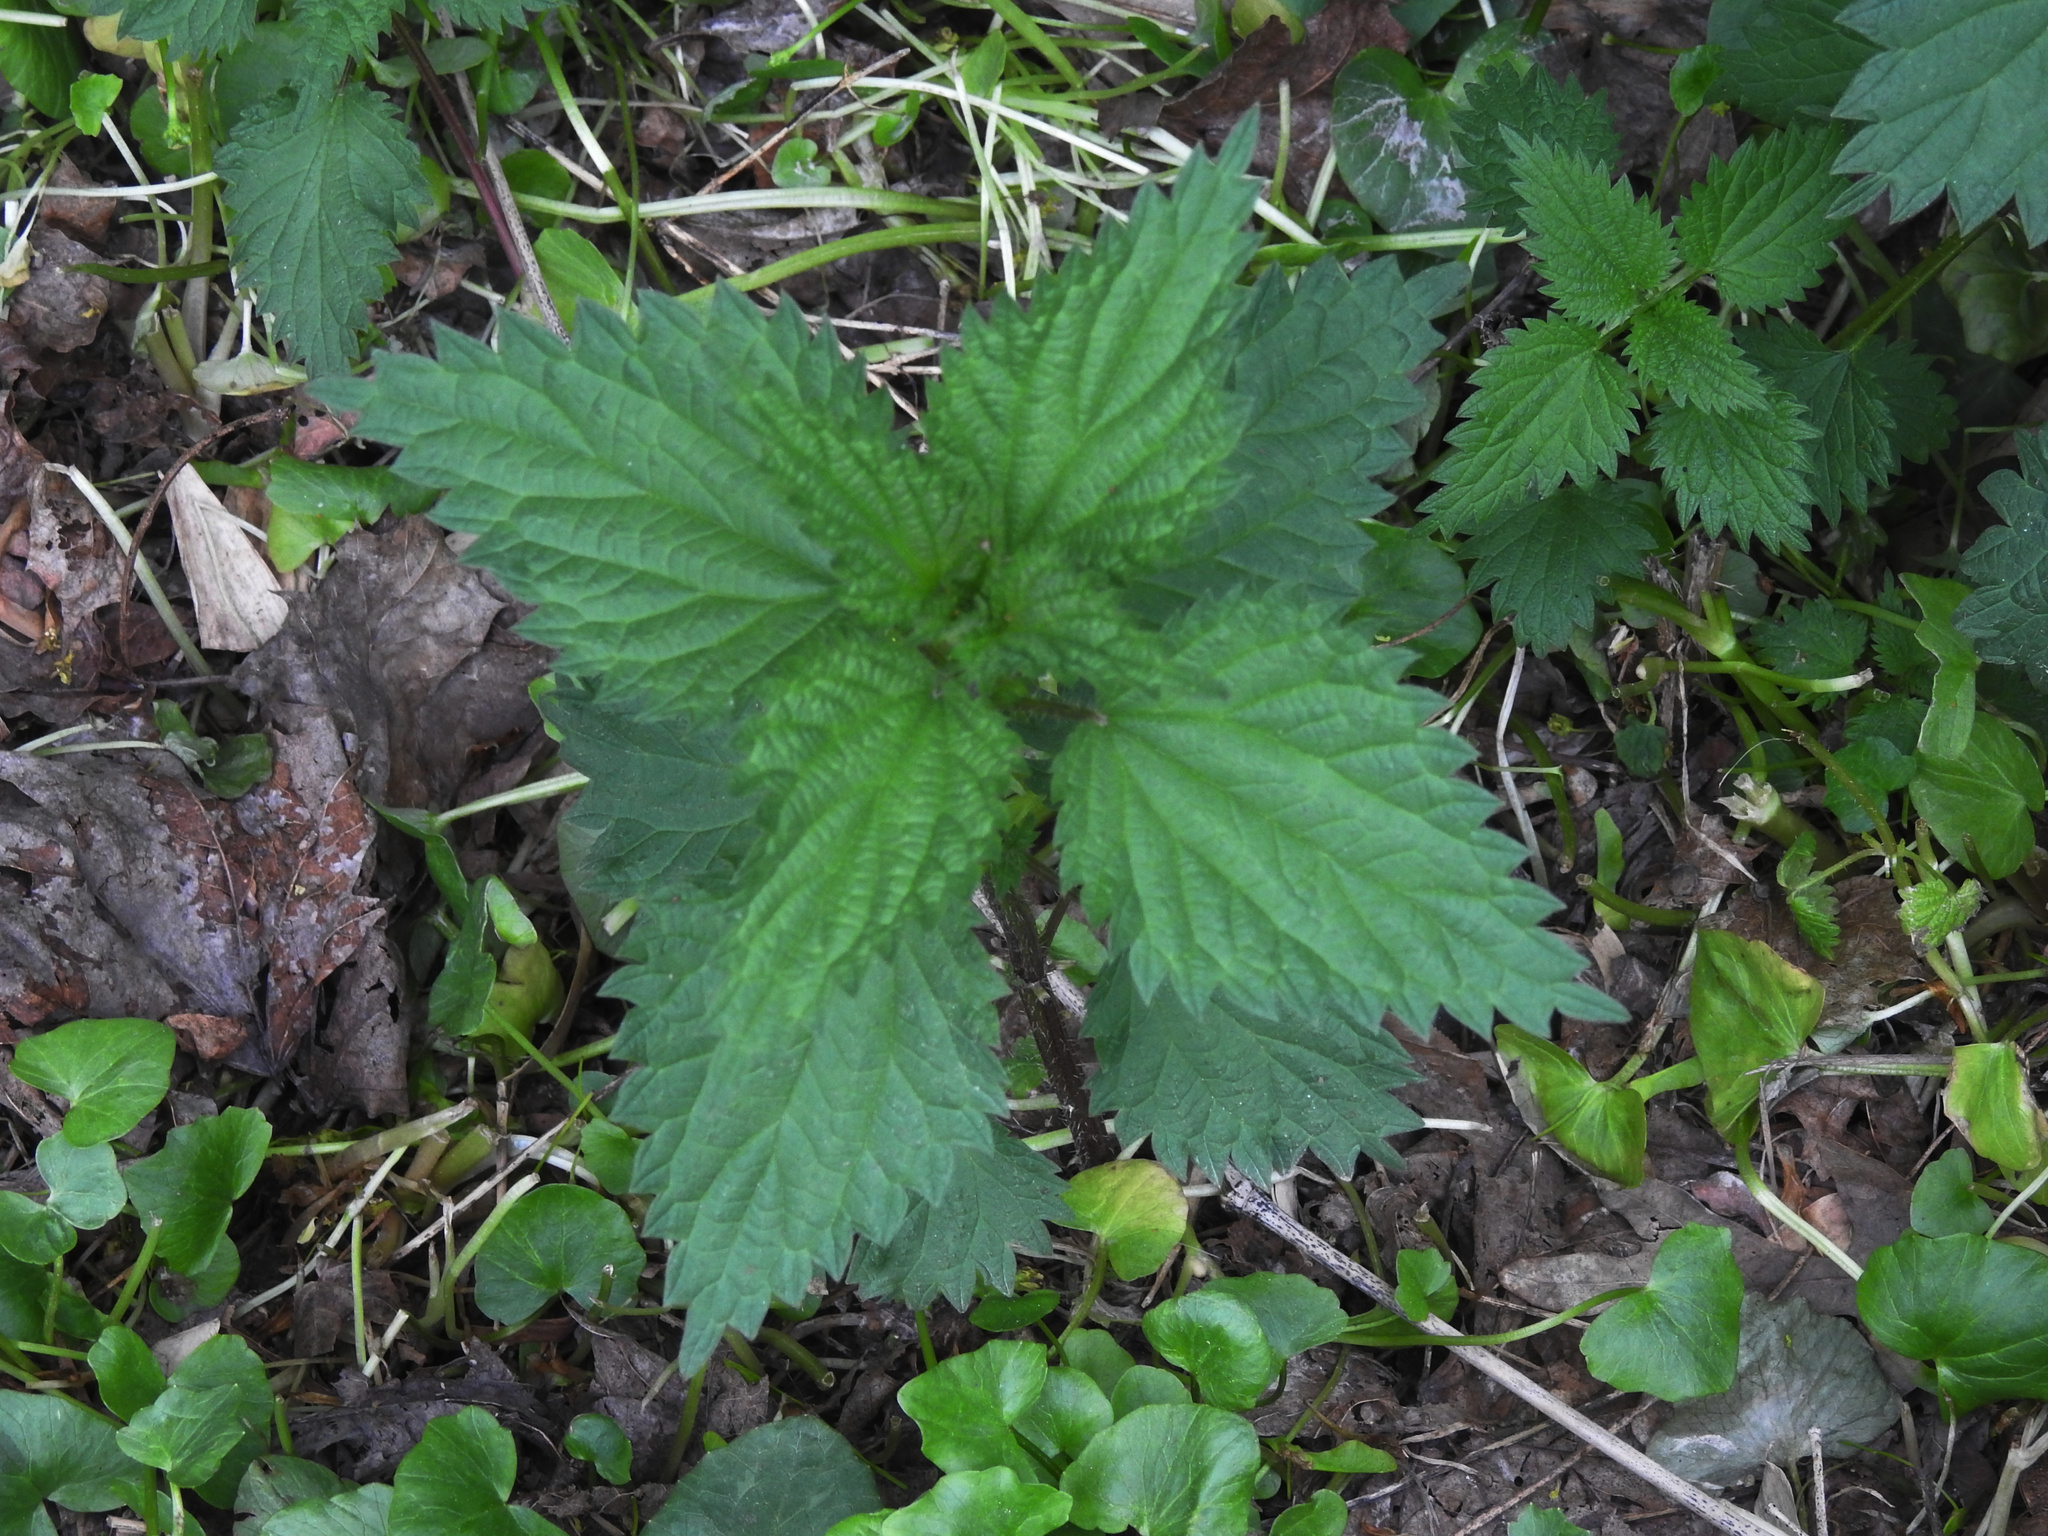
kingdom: Plantae
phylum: Tracheophyta
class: Magnoliopsida
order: Rosales
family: Urticaceae
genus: Urtica
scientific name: Urtica dioica
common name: Common nettle
